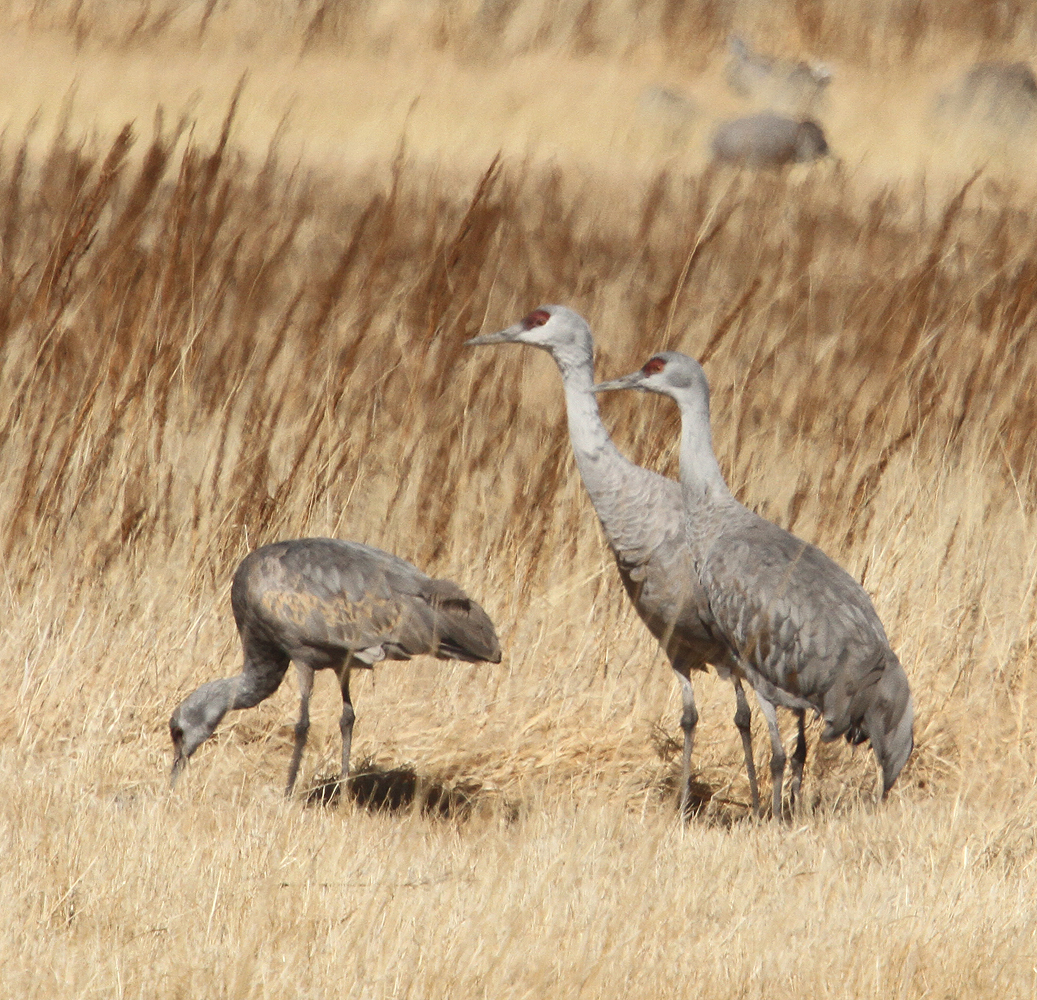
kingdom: Animalia
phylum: Chordata
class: Aves
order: Gruiformes
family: Gruidae
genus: Grus
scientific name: Grus canadensis
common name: Sandhill crane
